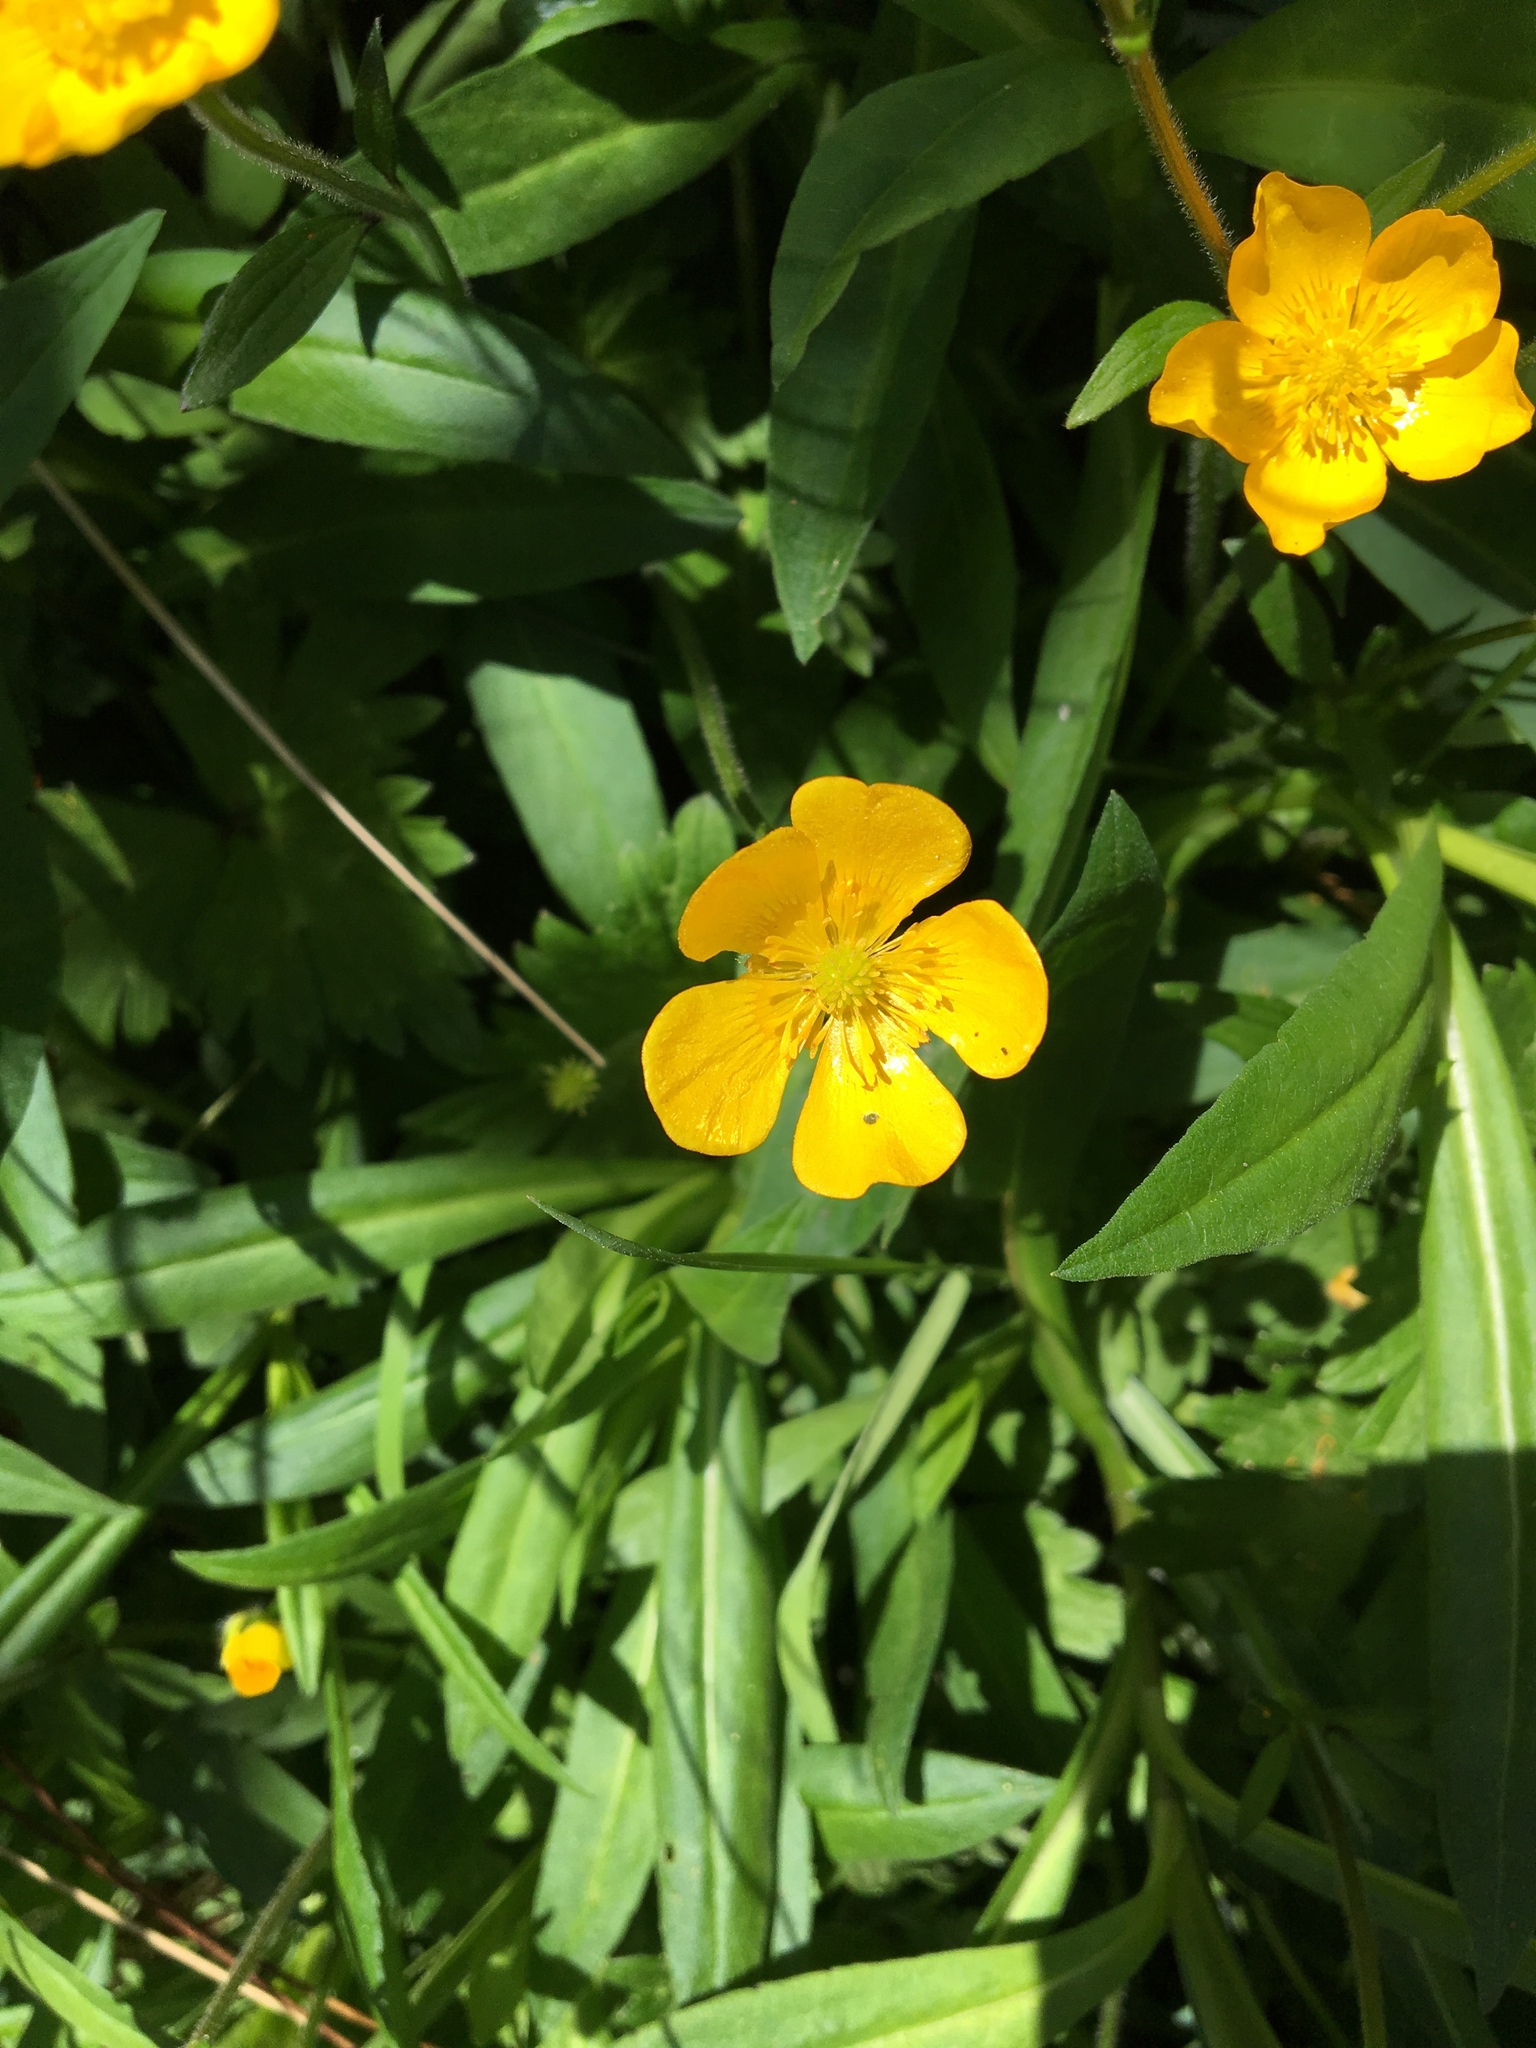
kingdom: Plantae
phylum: Tracheophyta
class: Magnoliopsida
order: Ranunculales
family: Ranunculaceae
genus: Ranunculus
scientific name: Ranunculus repens
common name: Creeping buttercup
